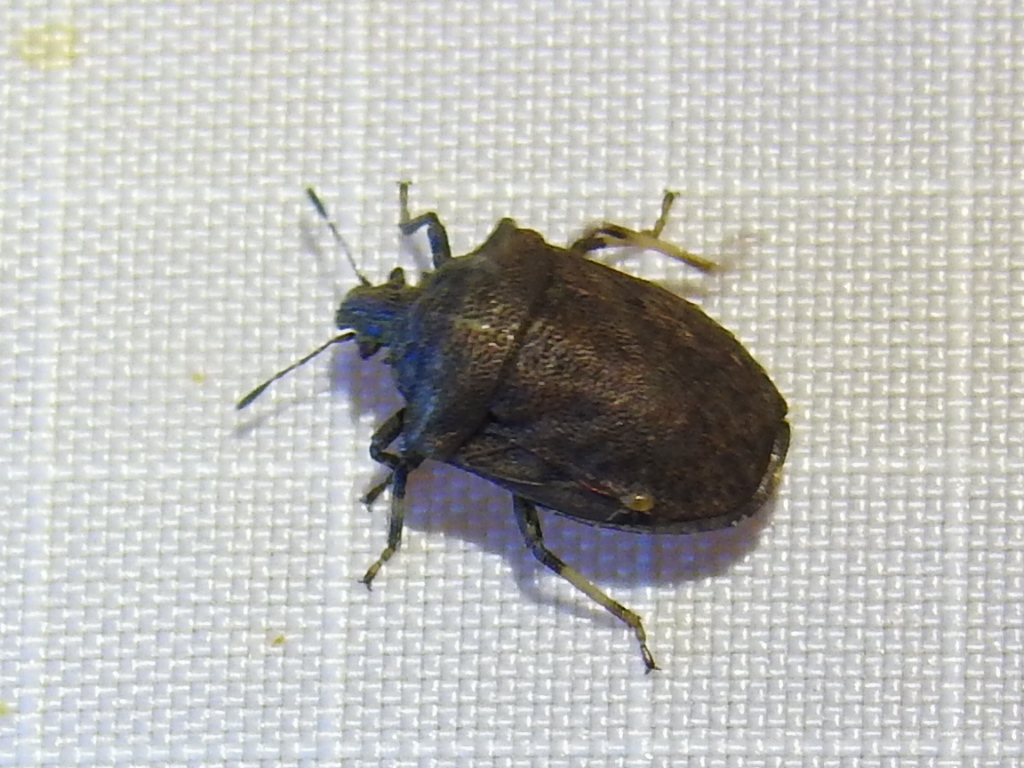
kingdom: Animalia
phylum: Arthropoda
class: Insecta
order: Hemiptera
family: Pentatomidae
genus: Amaurochrous
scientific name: Amaurochrous cinctipes
